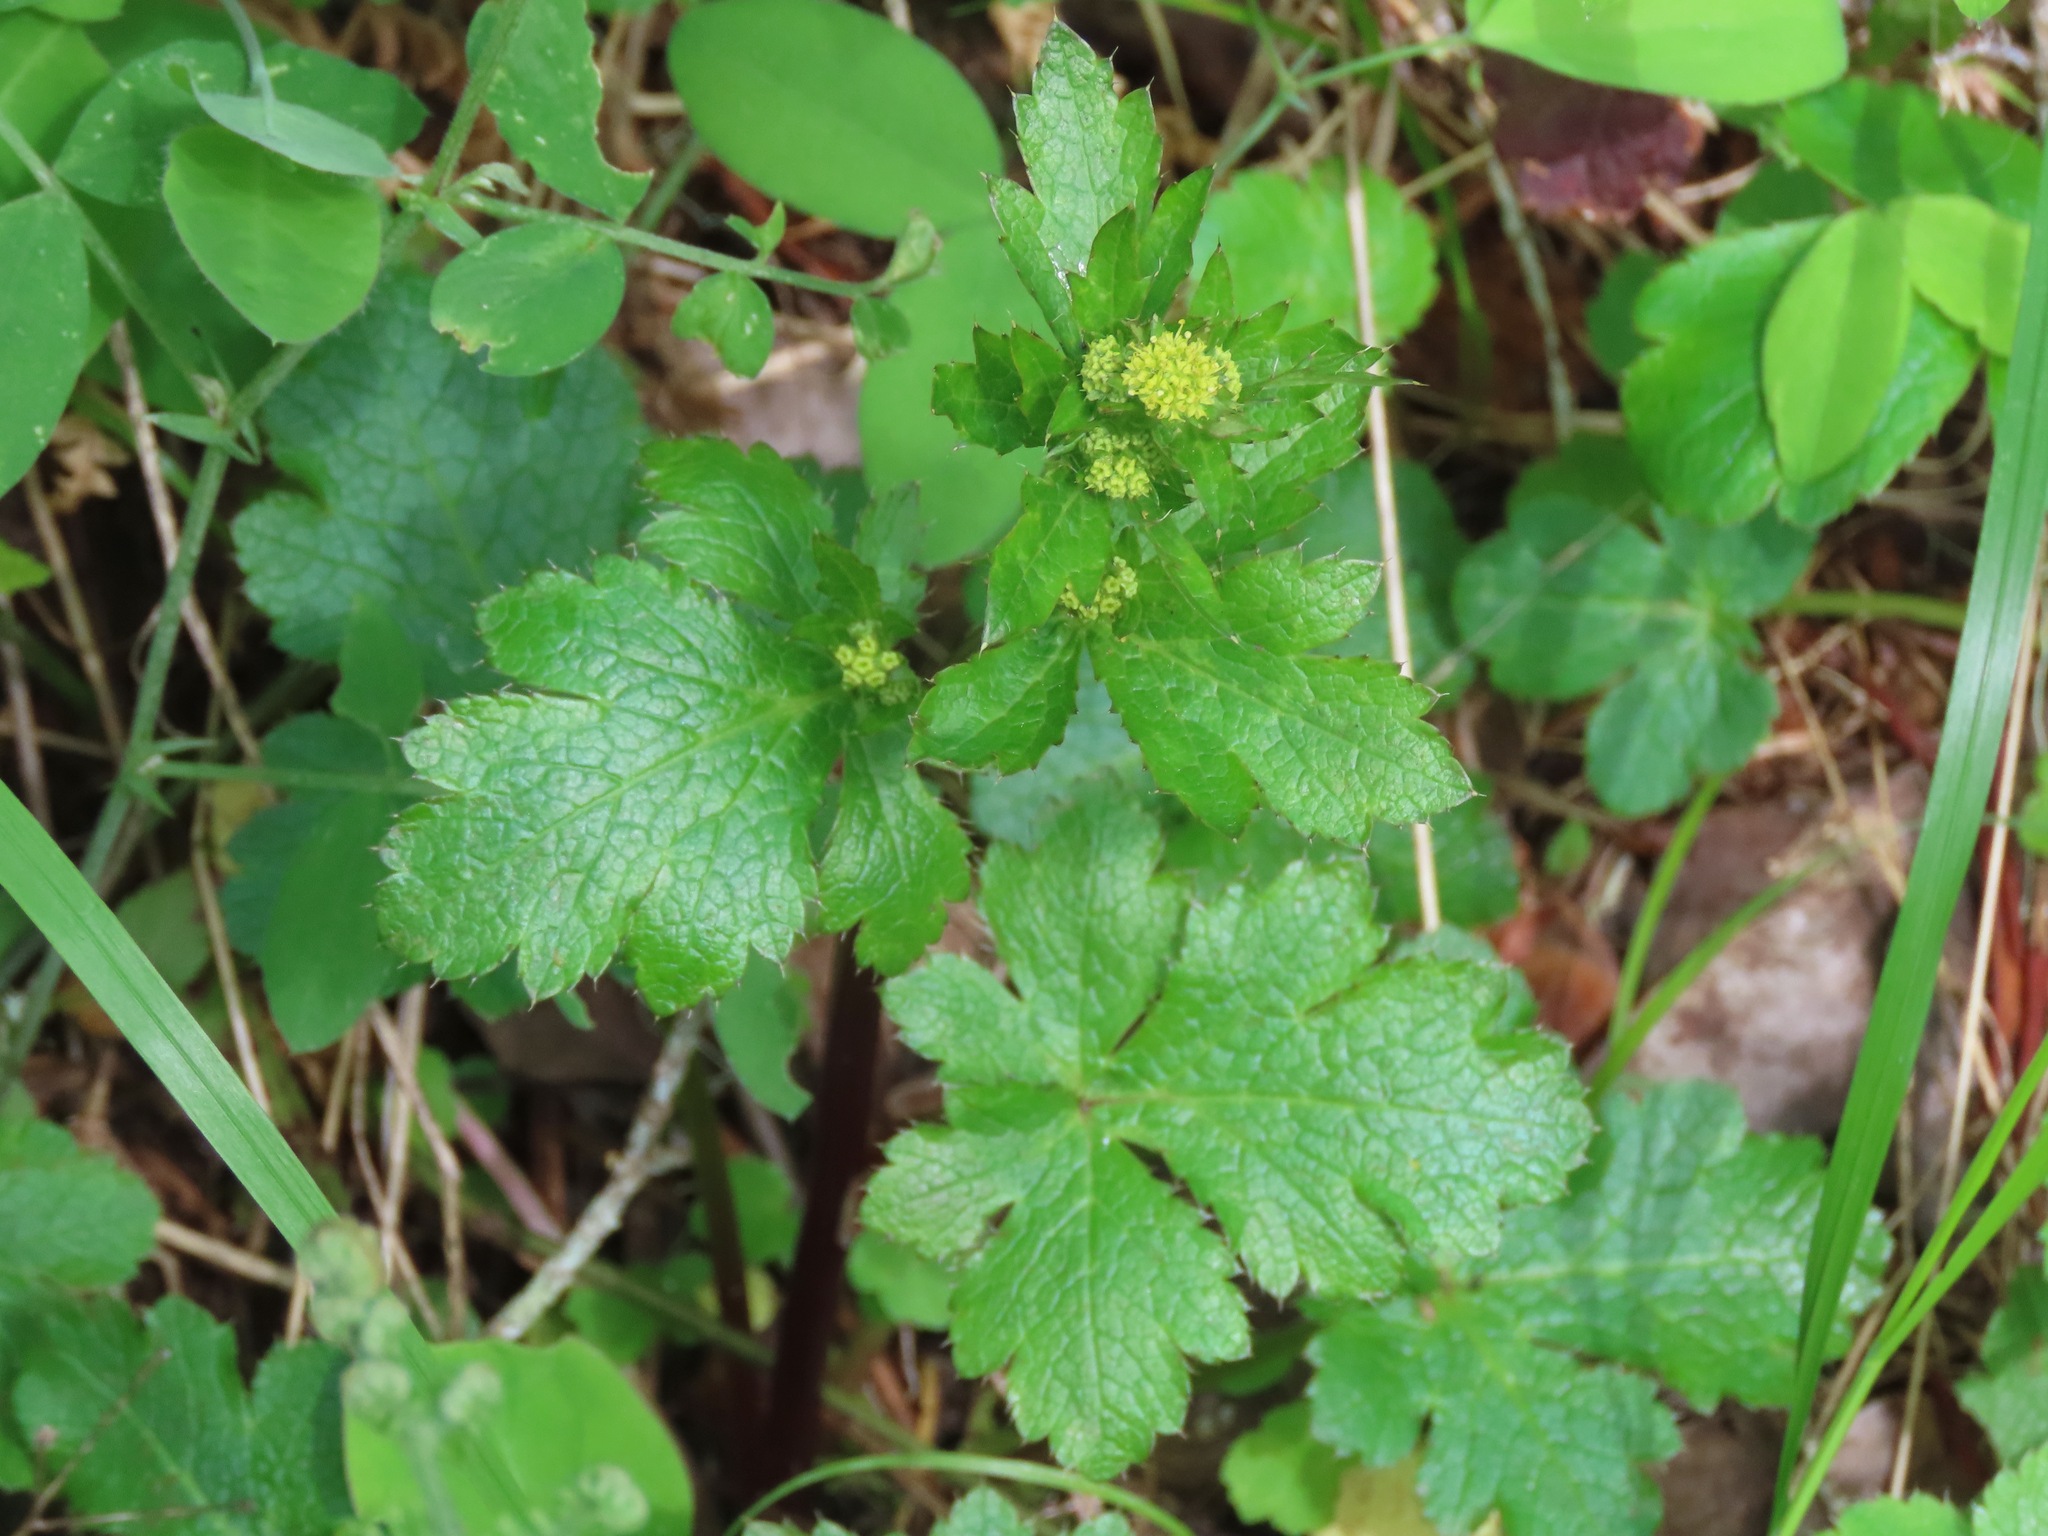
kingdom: Plantae
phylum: Tracheophyta
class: Magnoliopsida
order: Apiales
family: Apiaceae
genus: Sanicula
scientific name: Sanicula crassicaulis
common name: Western snakeroot
